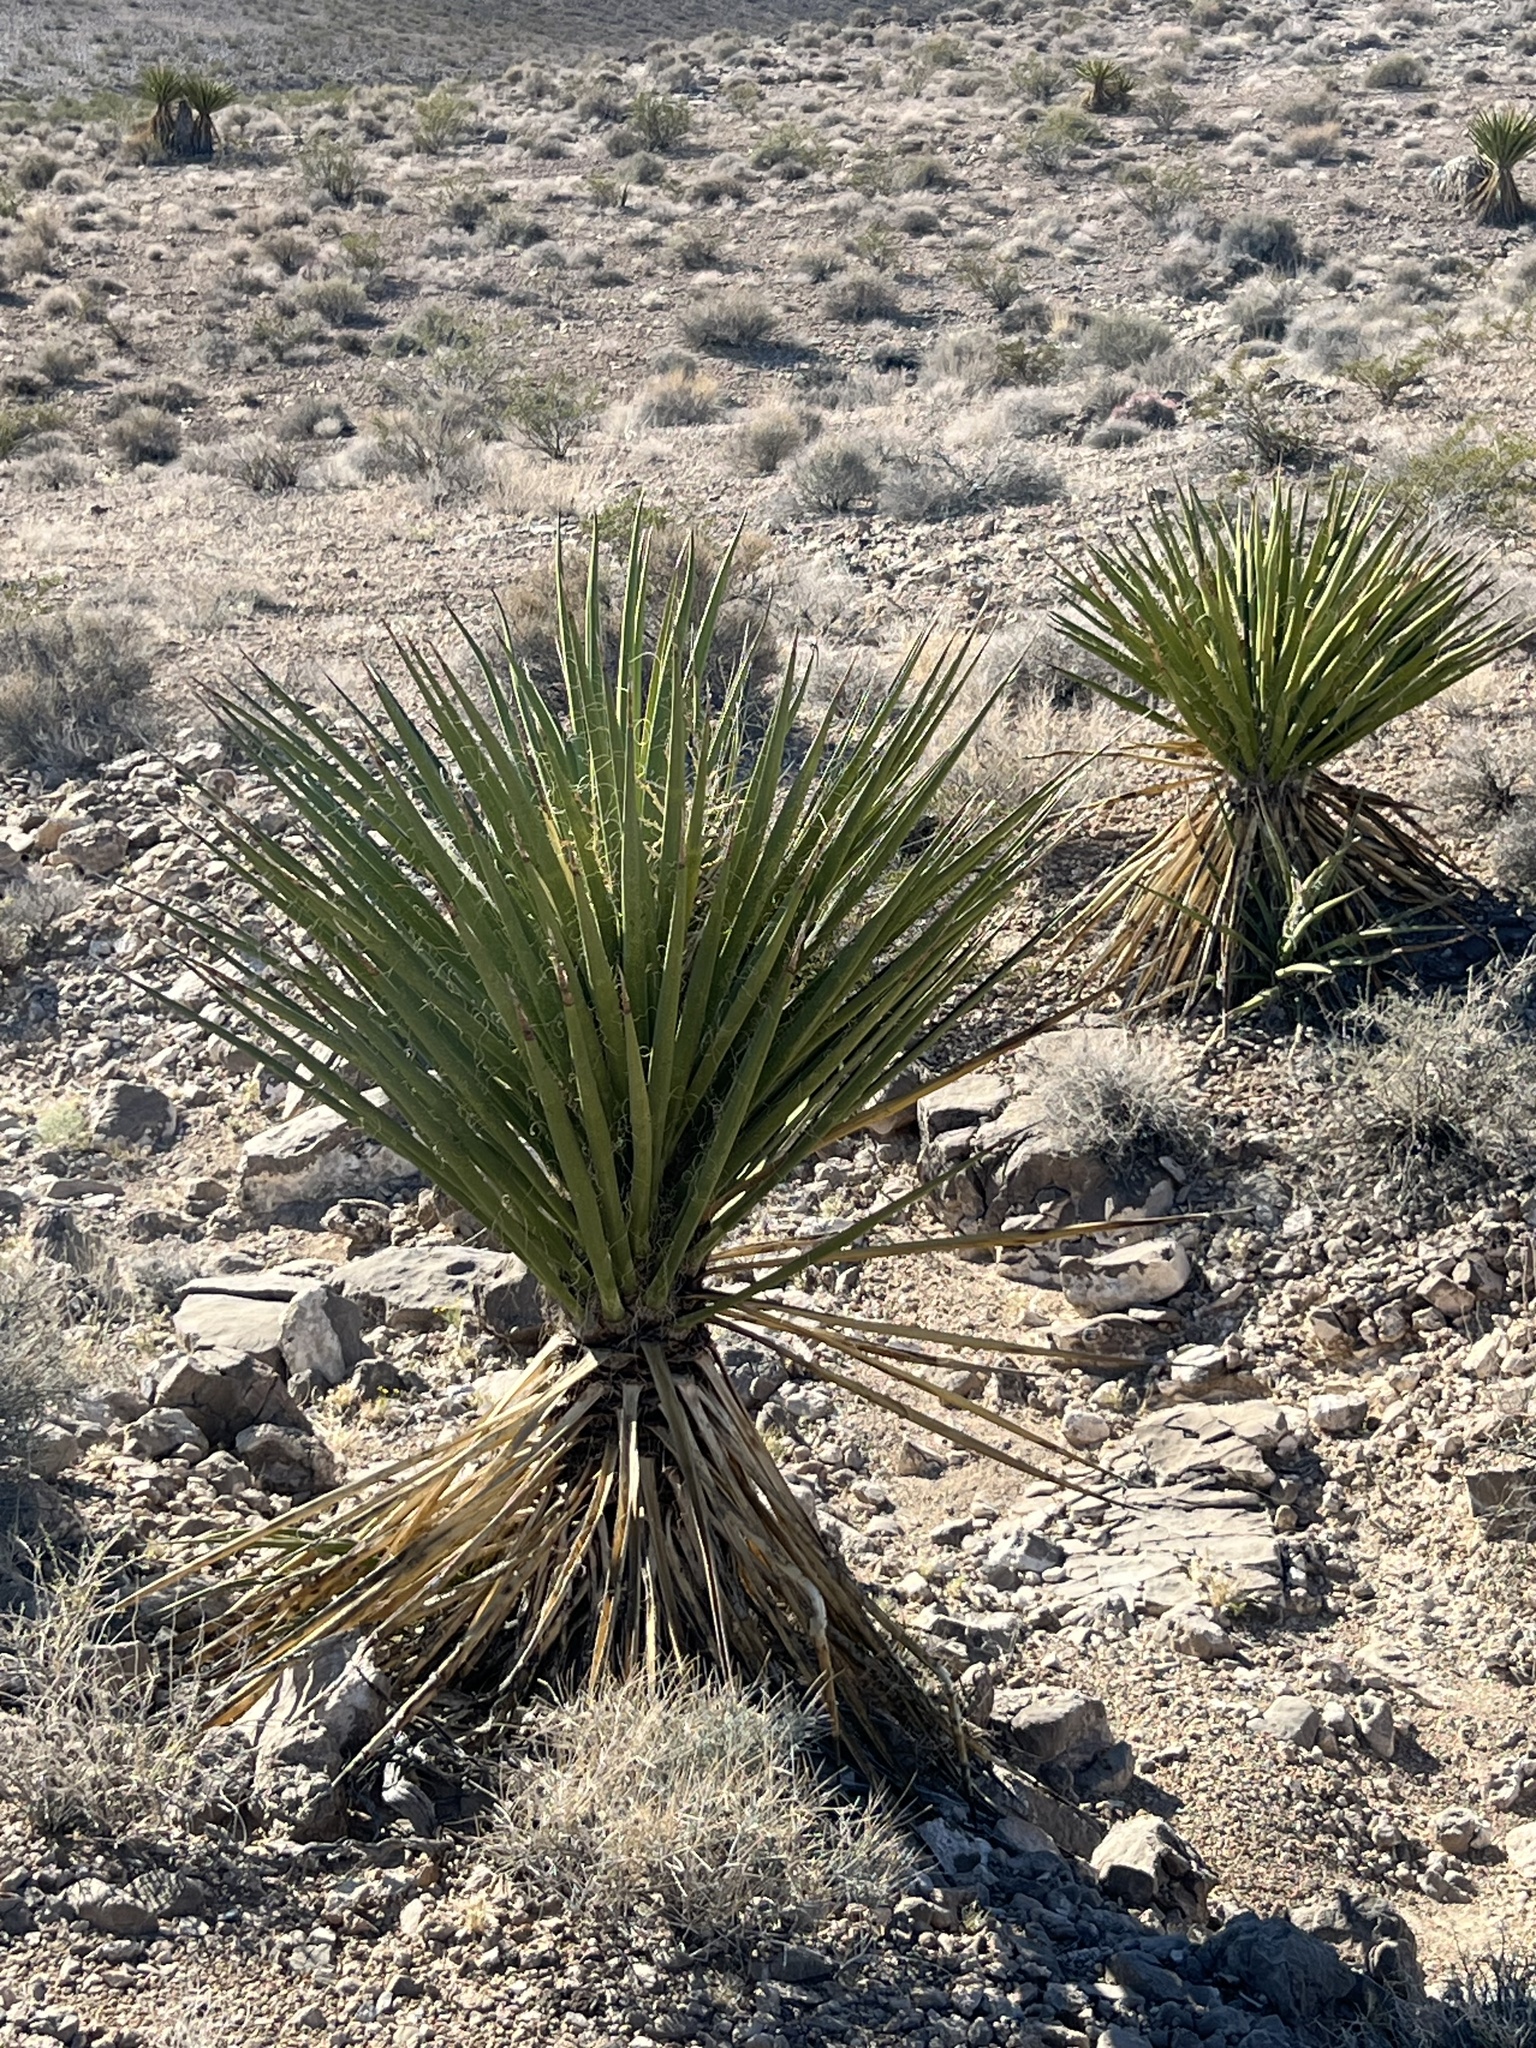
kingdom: Plantae
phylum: Tracheophyta
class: Liliopsida
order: Asparagales
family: Asparagaceae
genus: Yucca
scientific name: Yucca schidigera
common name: Mojave yucca
